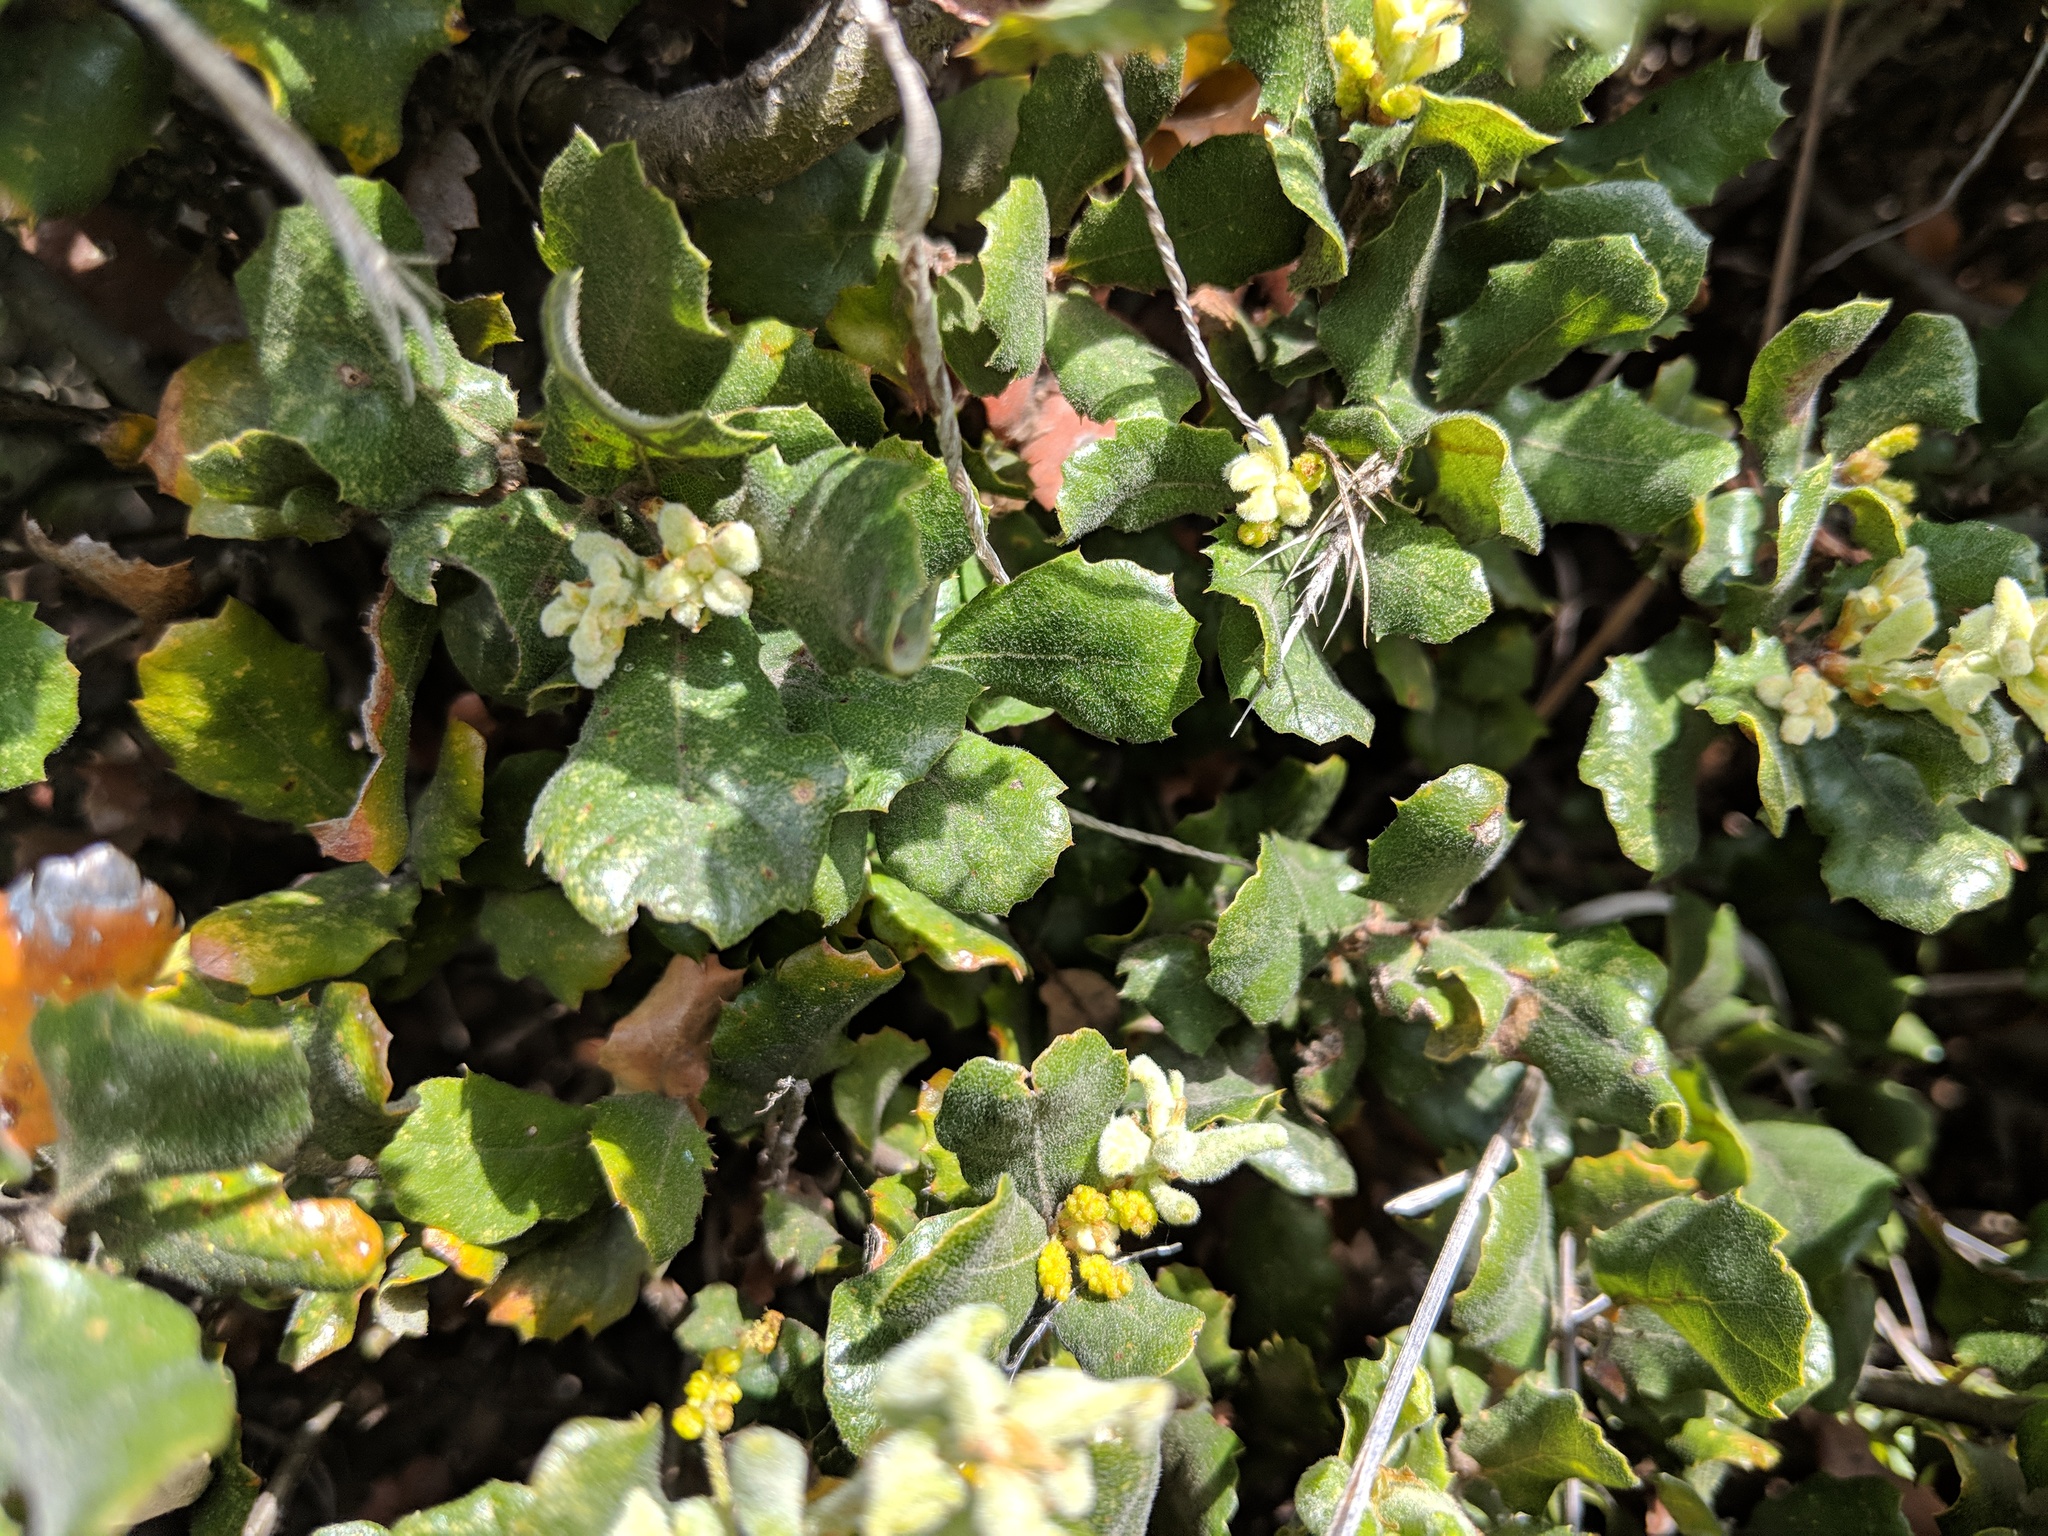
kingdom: Plantae
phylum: Tracheophyta
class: Magnoliopsida
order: Fagales
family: Fagaceae
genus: Quercus
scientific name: Quercus durata
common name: Leather oak
